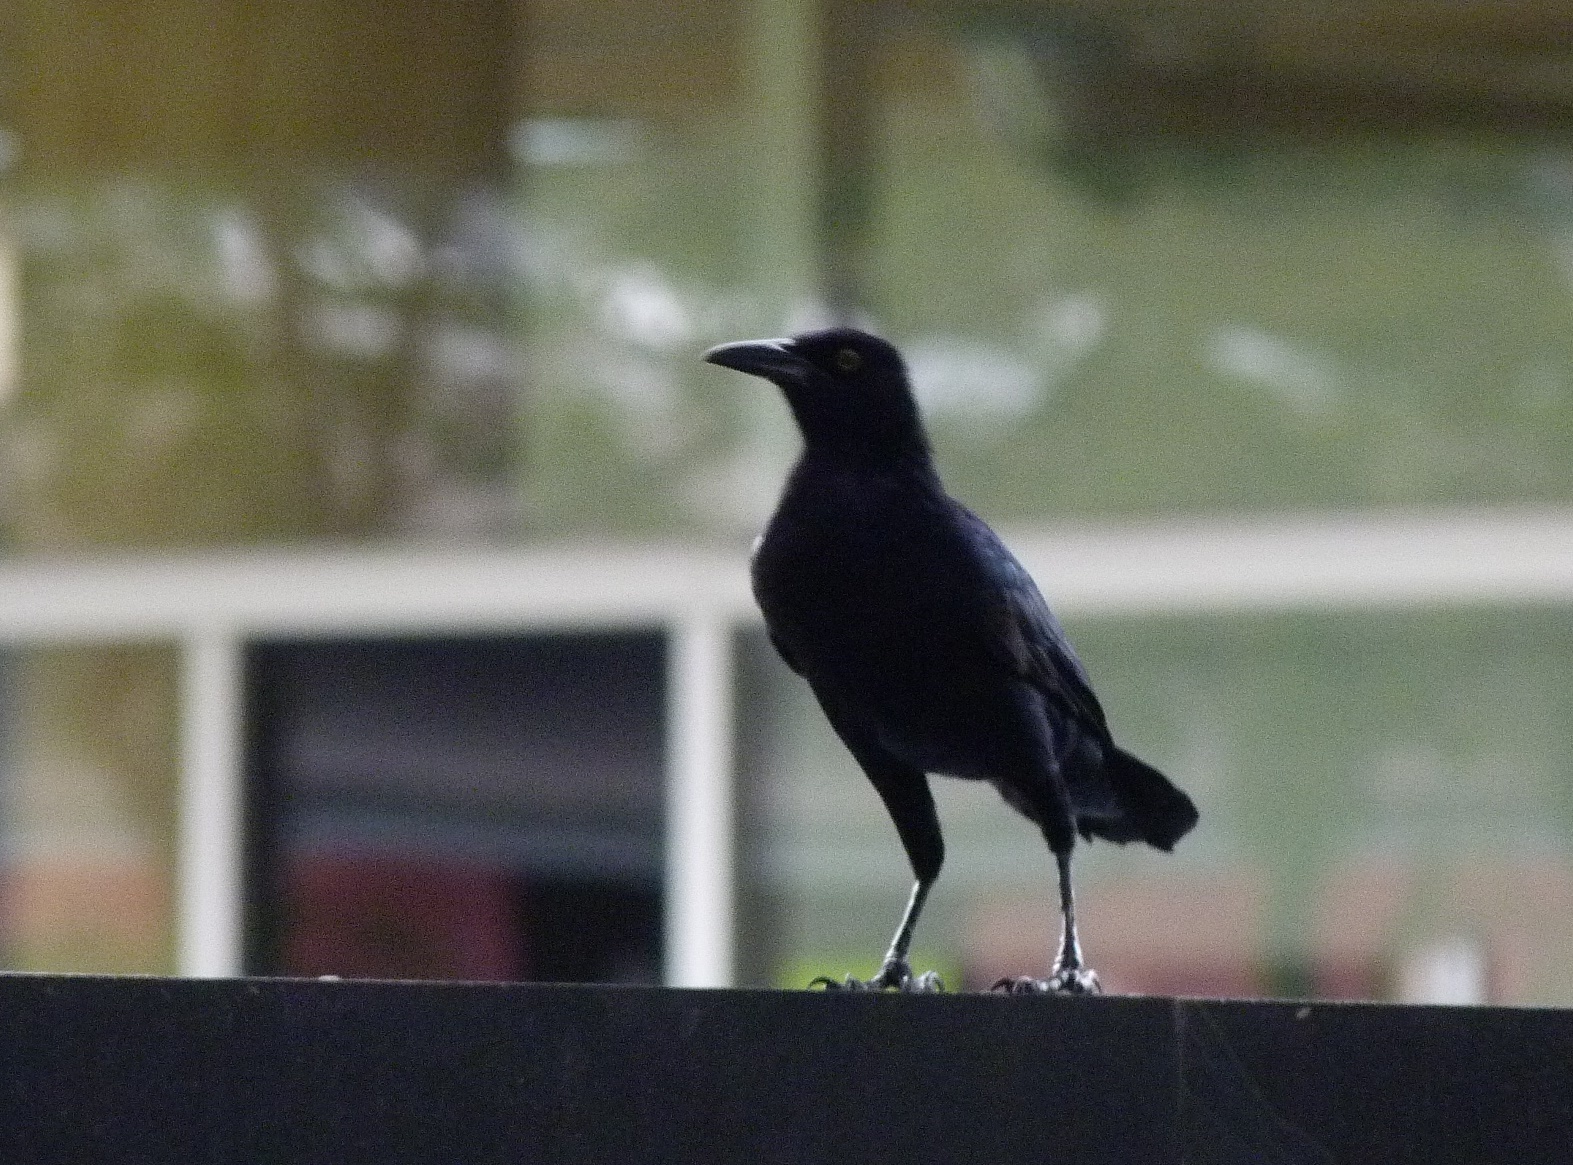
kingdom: Animalia
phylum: Chordata
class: Aves
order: Passeriformes
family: Icteridae
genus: Quiscalus
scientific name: Quiscalus mexicanus
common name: Great-tailed grackle
